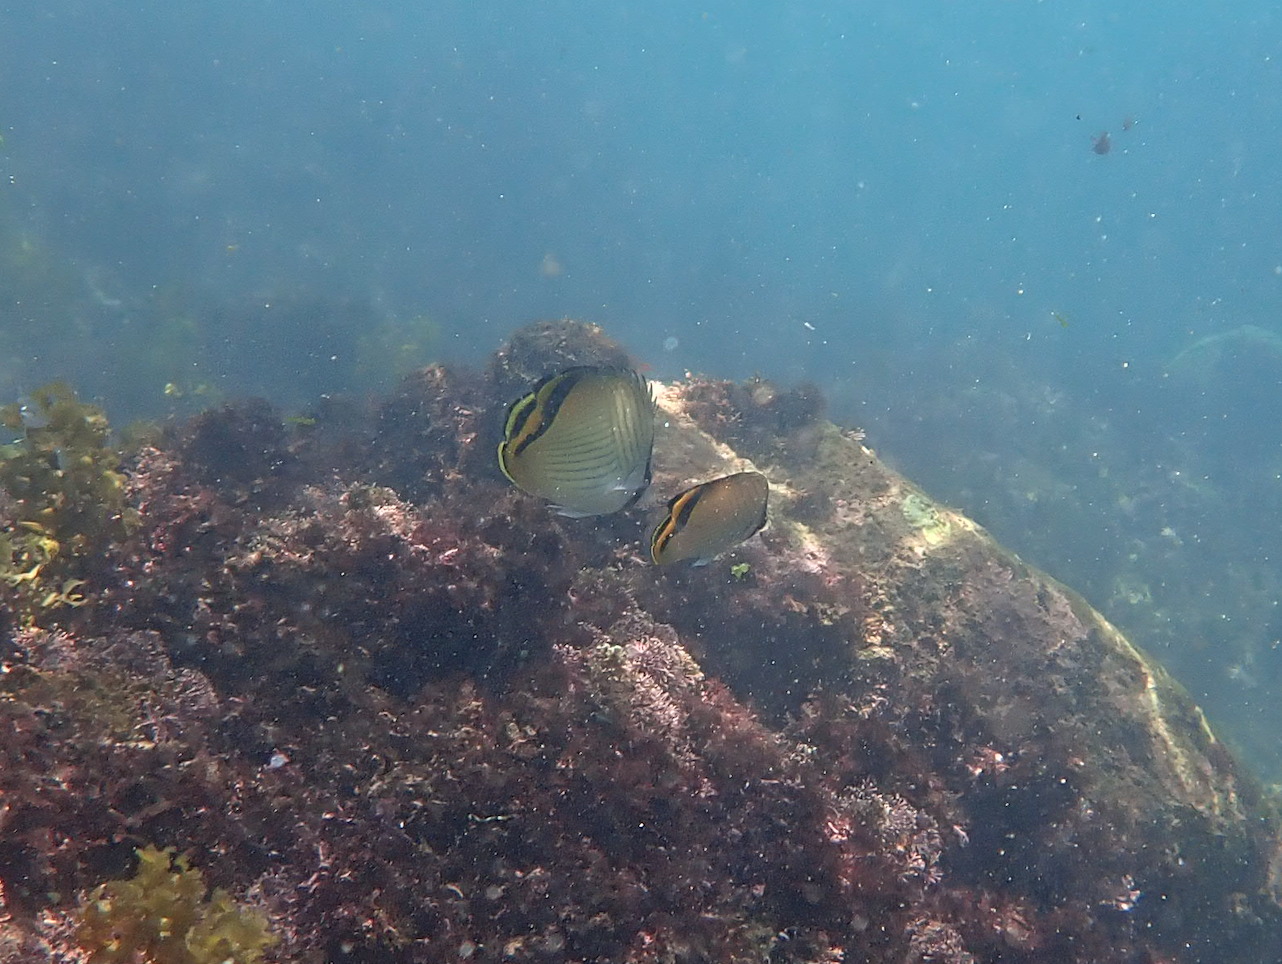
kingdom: Animalia
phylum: Chordata
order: Perciformes
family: Chaetodontidae
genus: Chaetodon
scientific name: Chaetodon vagabundus
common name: Vagabond butterflyfish
